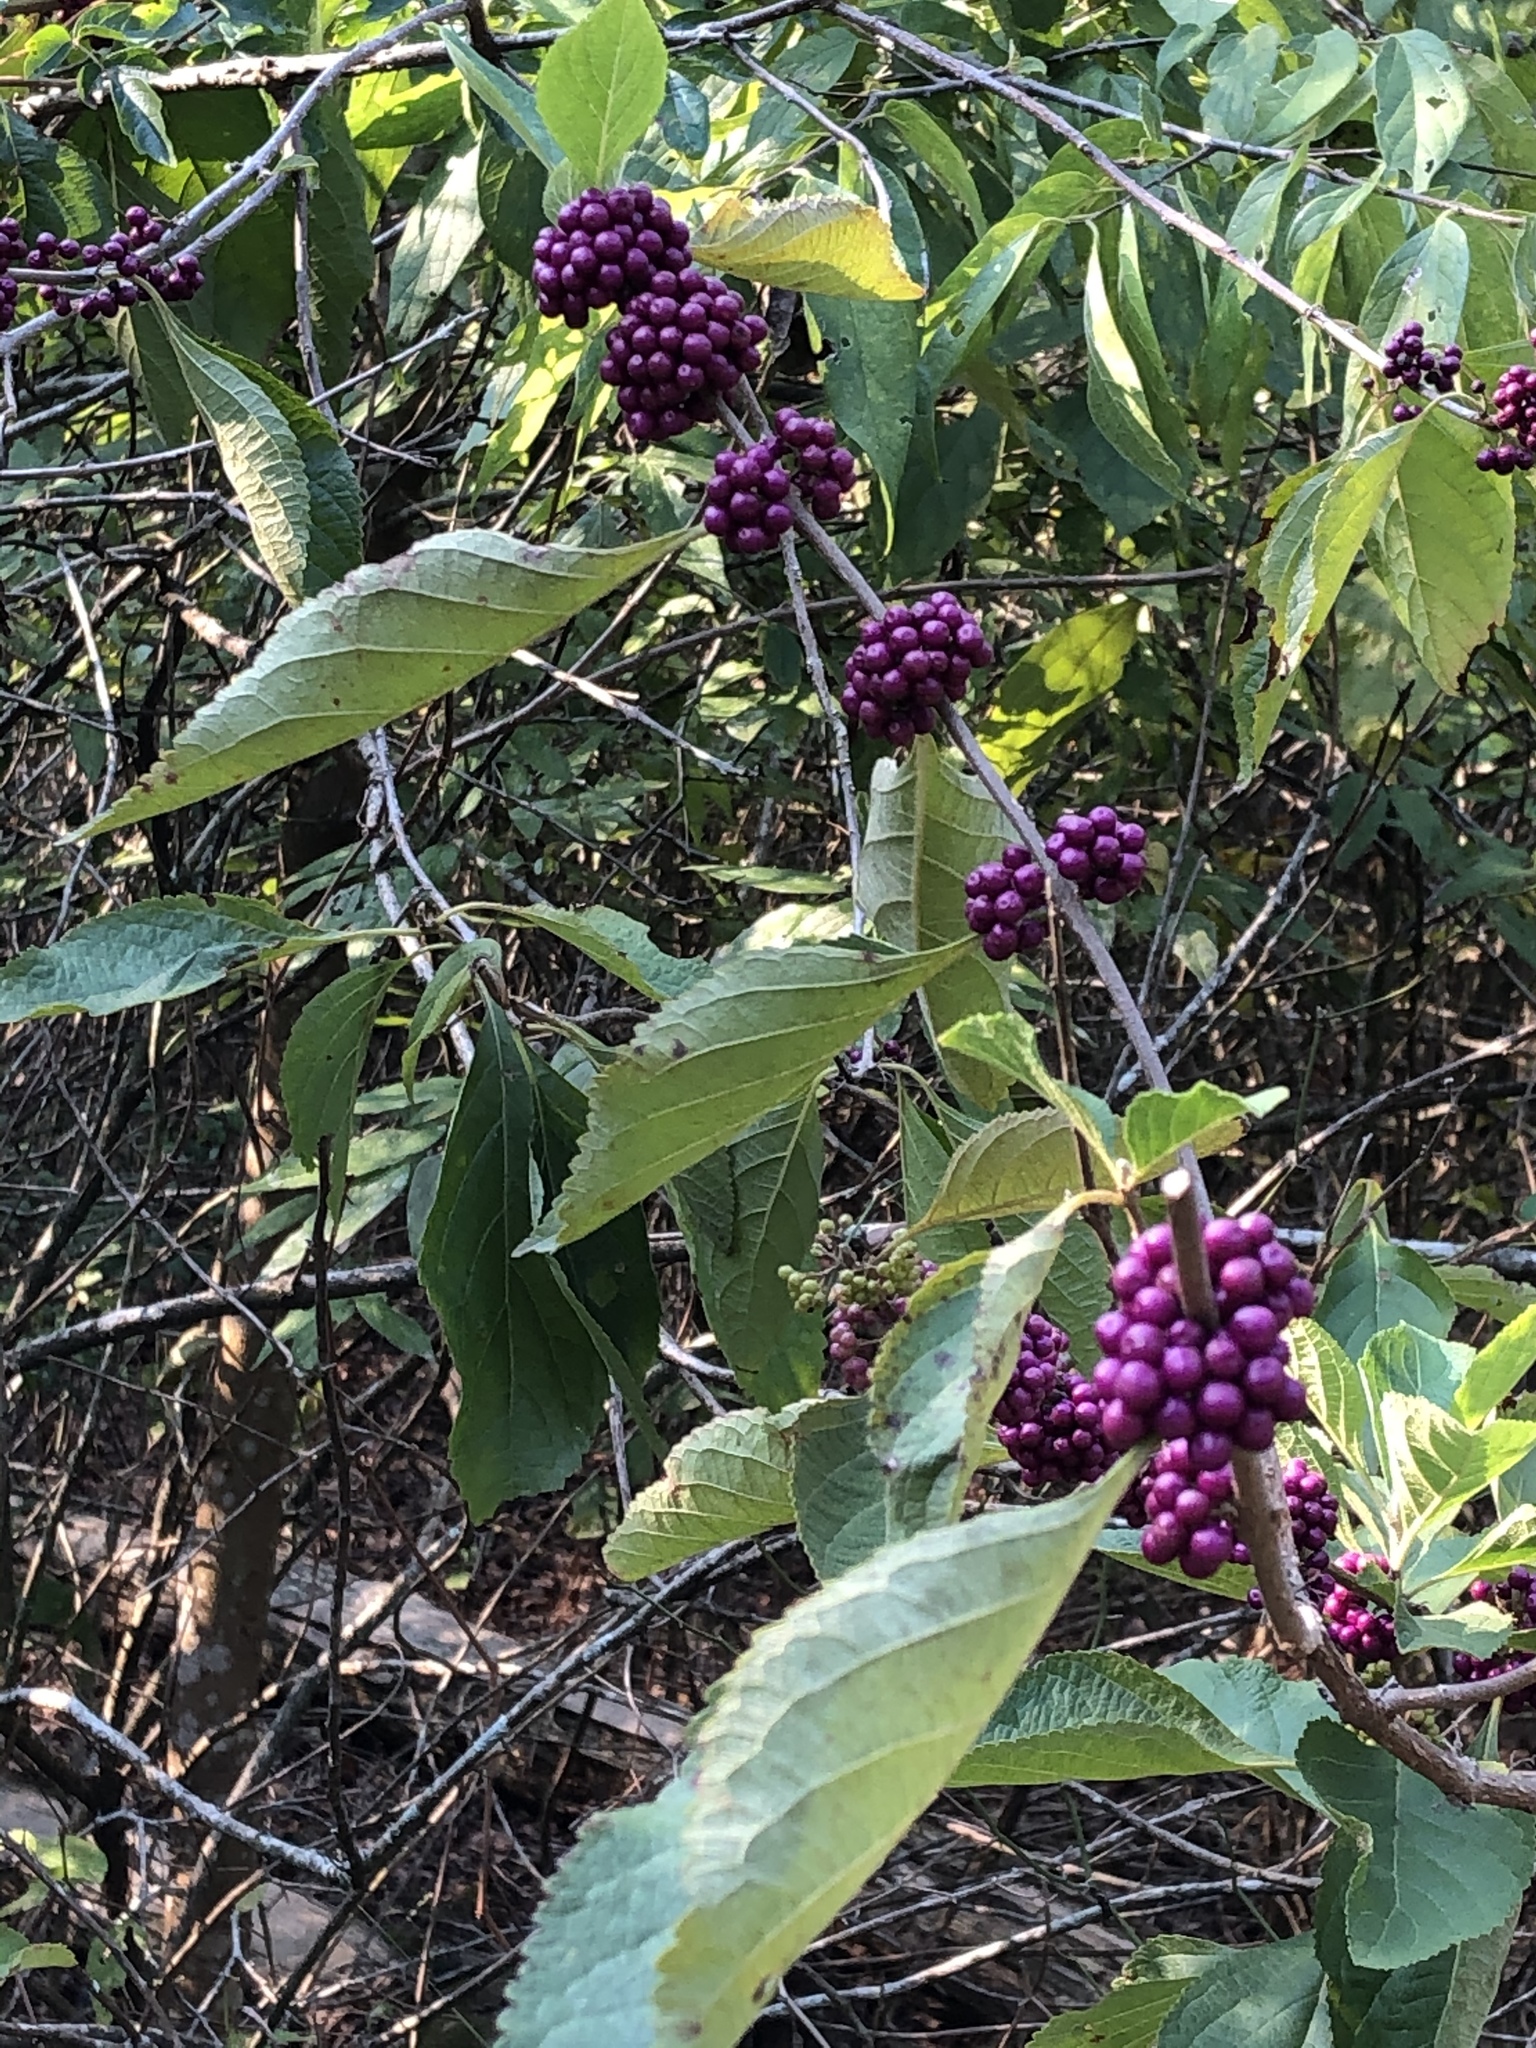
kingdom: Plantae
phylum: Tracheophyta
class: Magnoliopsida
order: Lamiales
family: Lamiaceae
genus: Callicarpa
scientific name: Callicarpa americana
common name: American beautyberry
